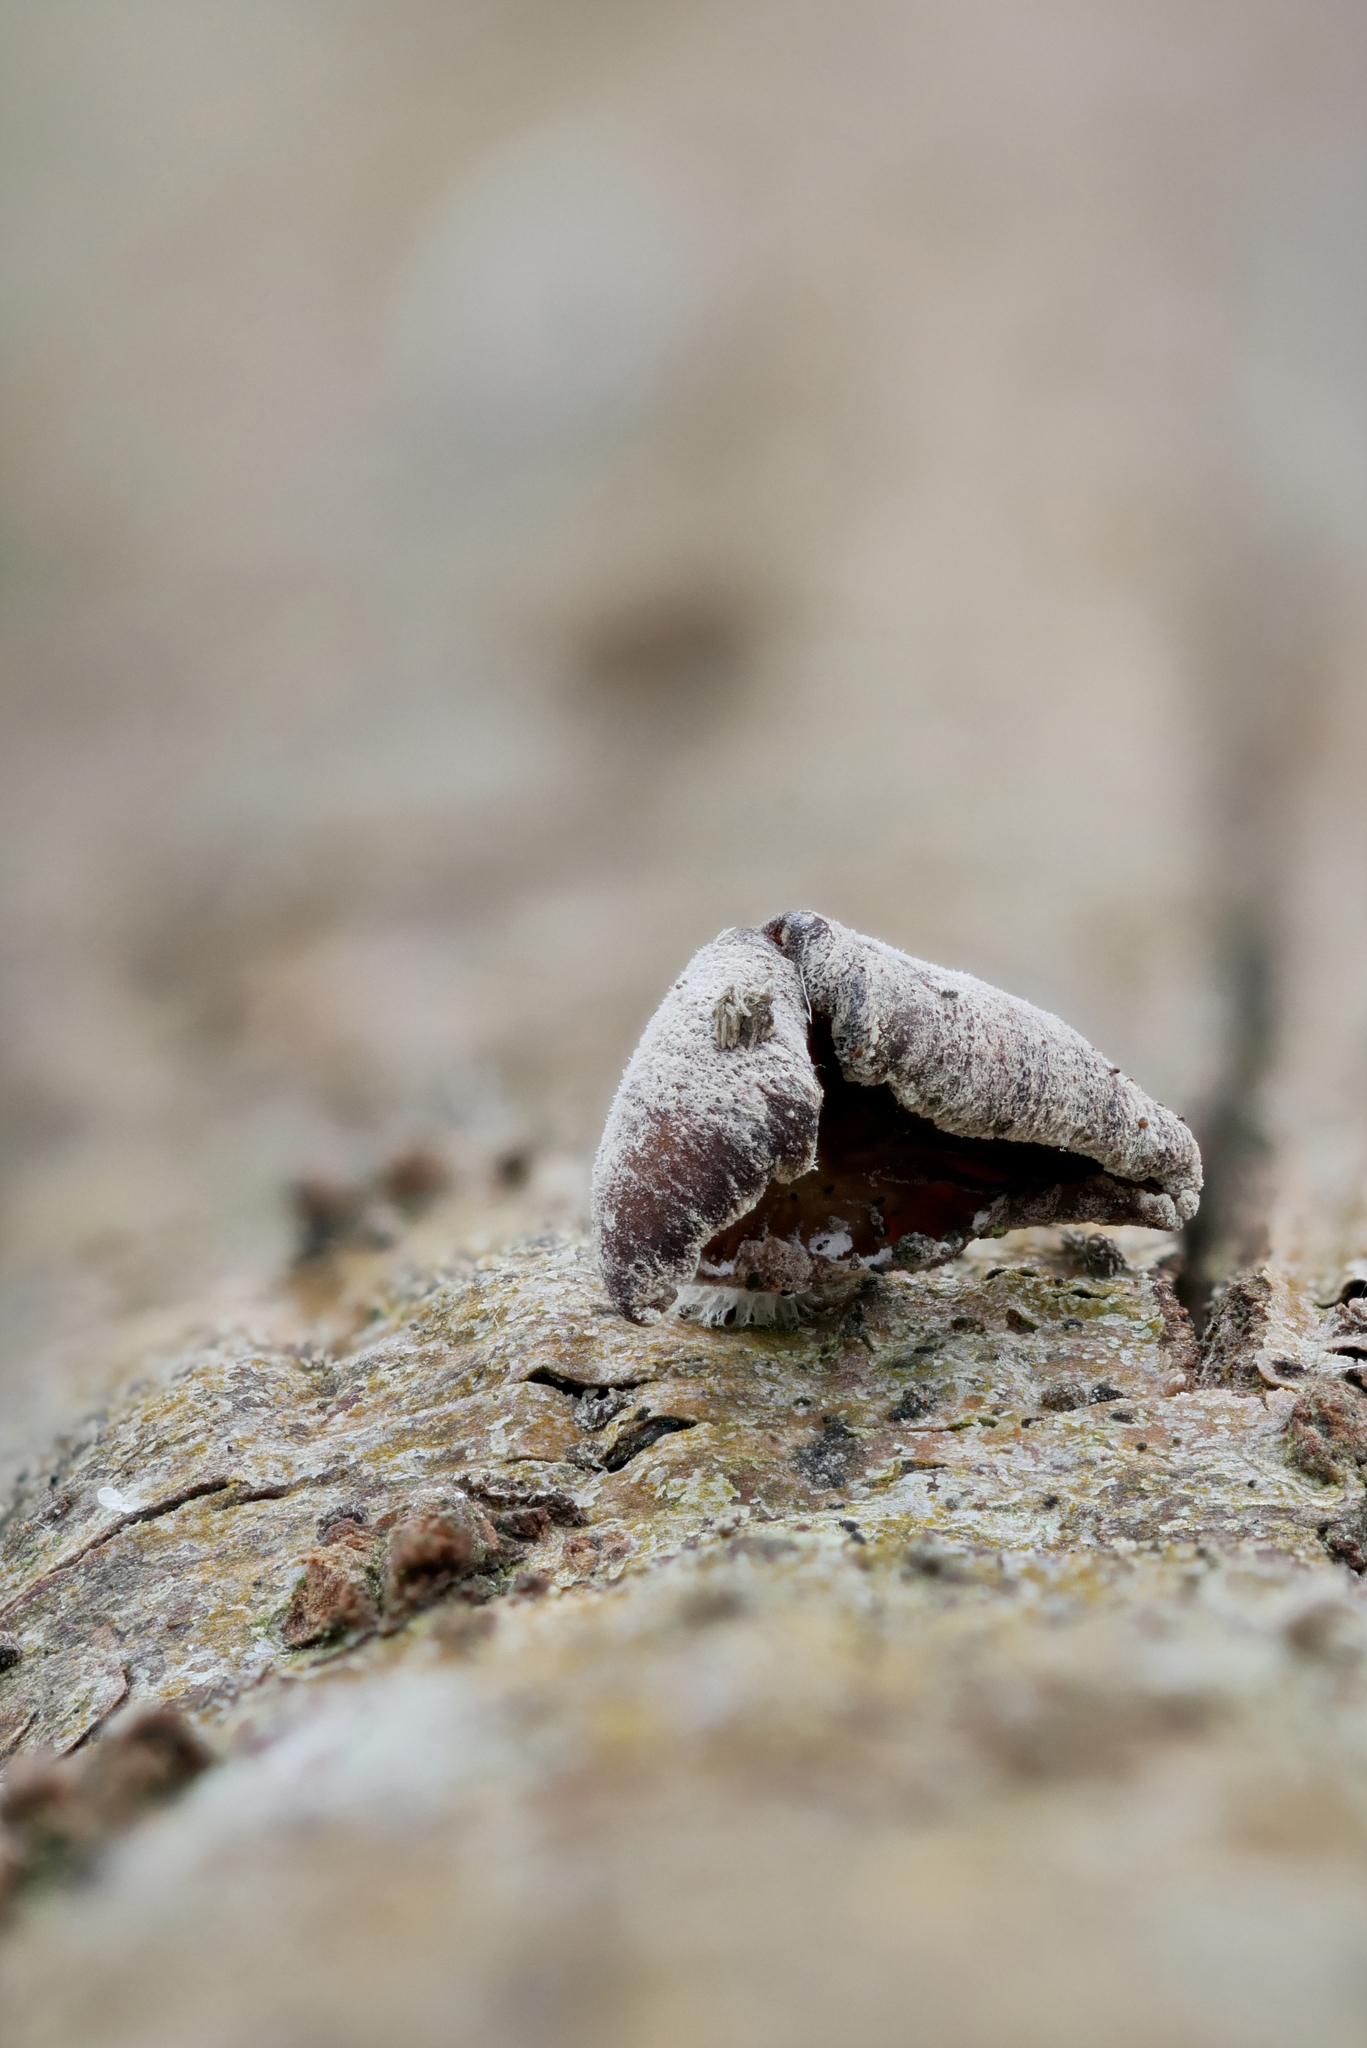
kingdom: Fungi
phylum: Basidiomycota
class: Agaricomycetes
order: Agaricales
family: Mycenaceae
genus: Panellus
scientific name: Panellus ringens
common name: Winter oysterling
